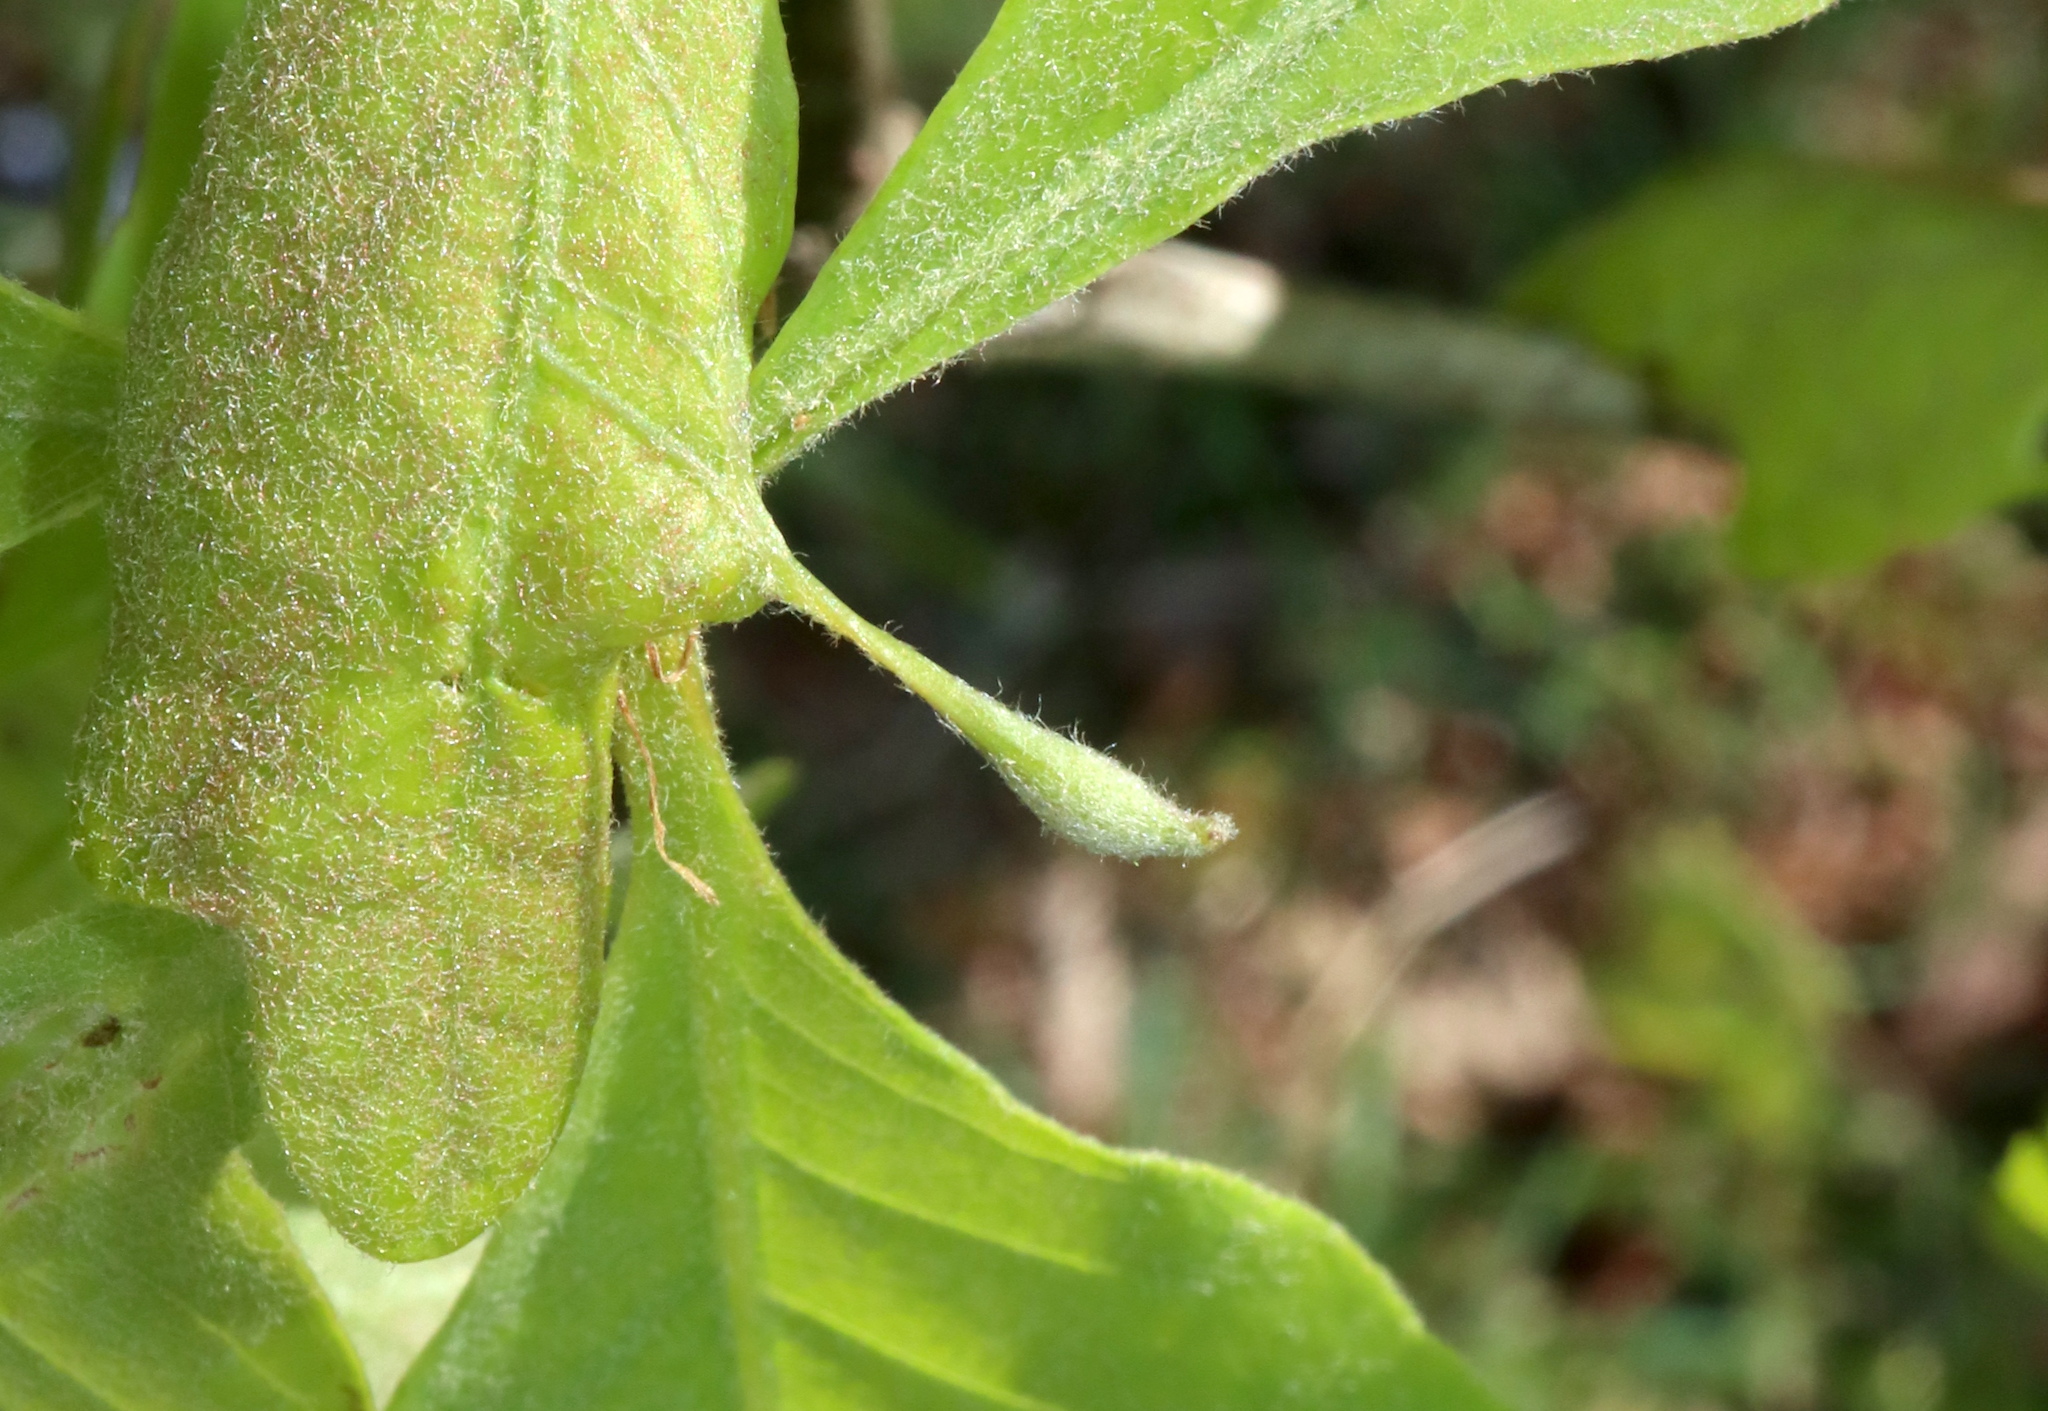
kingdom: Animalia
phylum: Arthropoda
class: Insecta
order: Hymenoptera
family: Cynipidae
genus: Andricus
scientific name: Andricus
